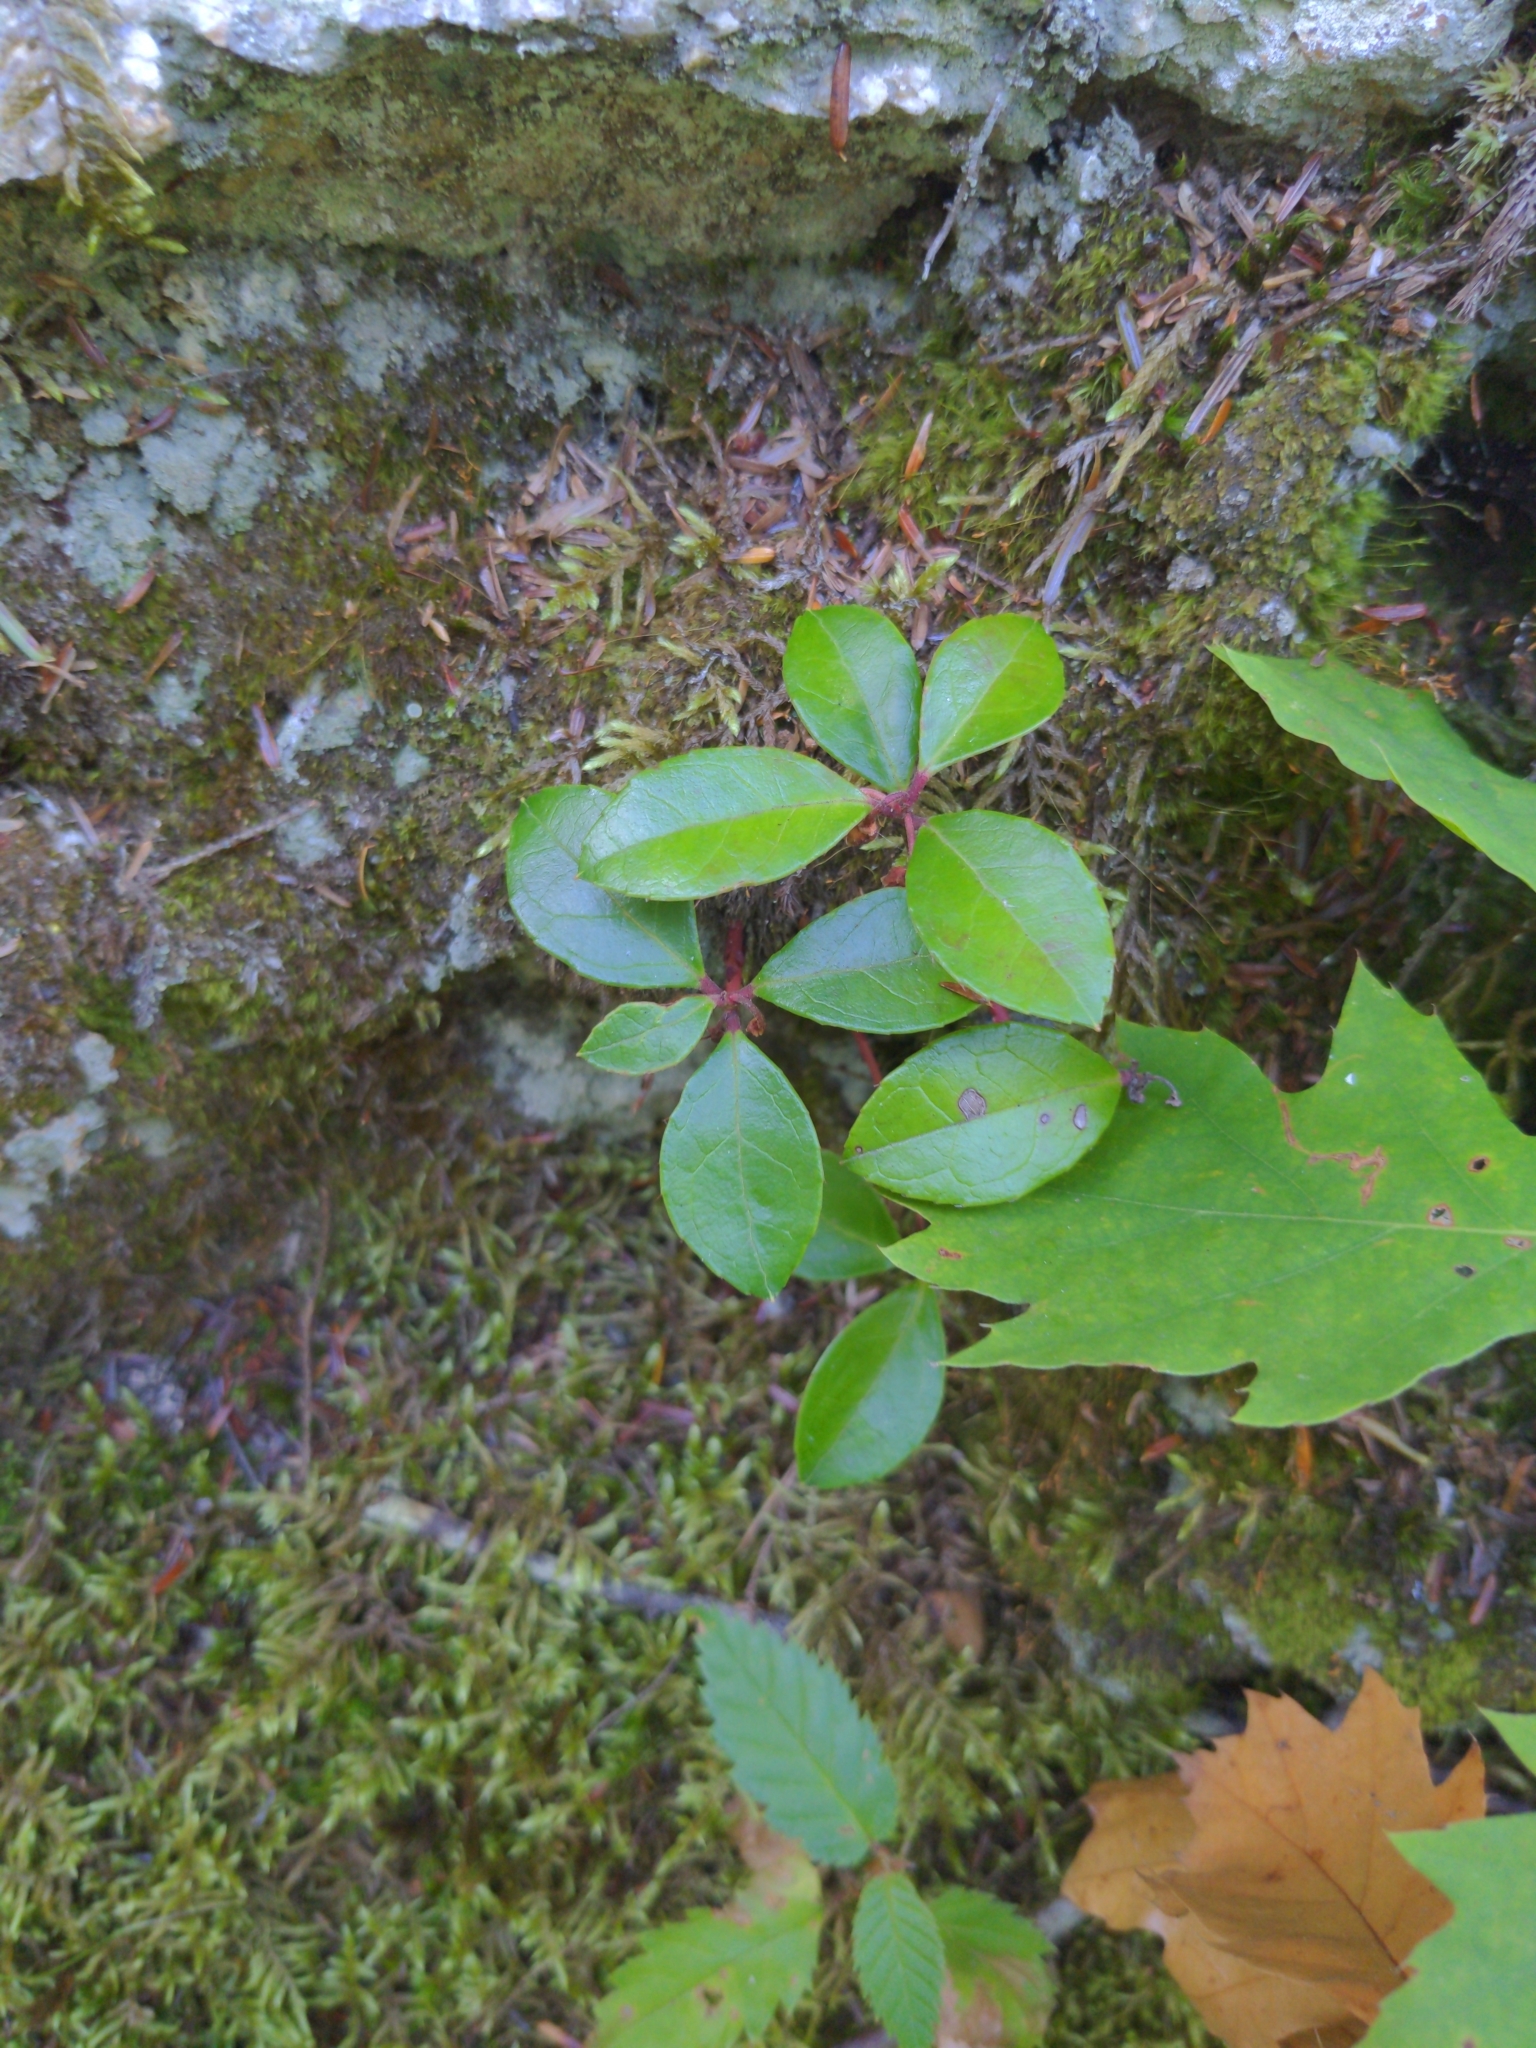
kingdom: Plantae
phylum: Tracheophyta
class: Magnoliopsida
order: Ericales
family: Ericaceae
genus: Gaultheria
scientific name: Gaultheria procumbens
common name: Checkerberry
